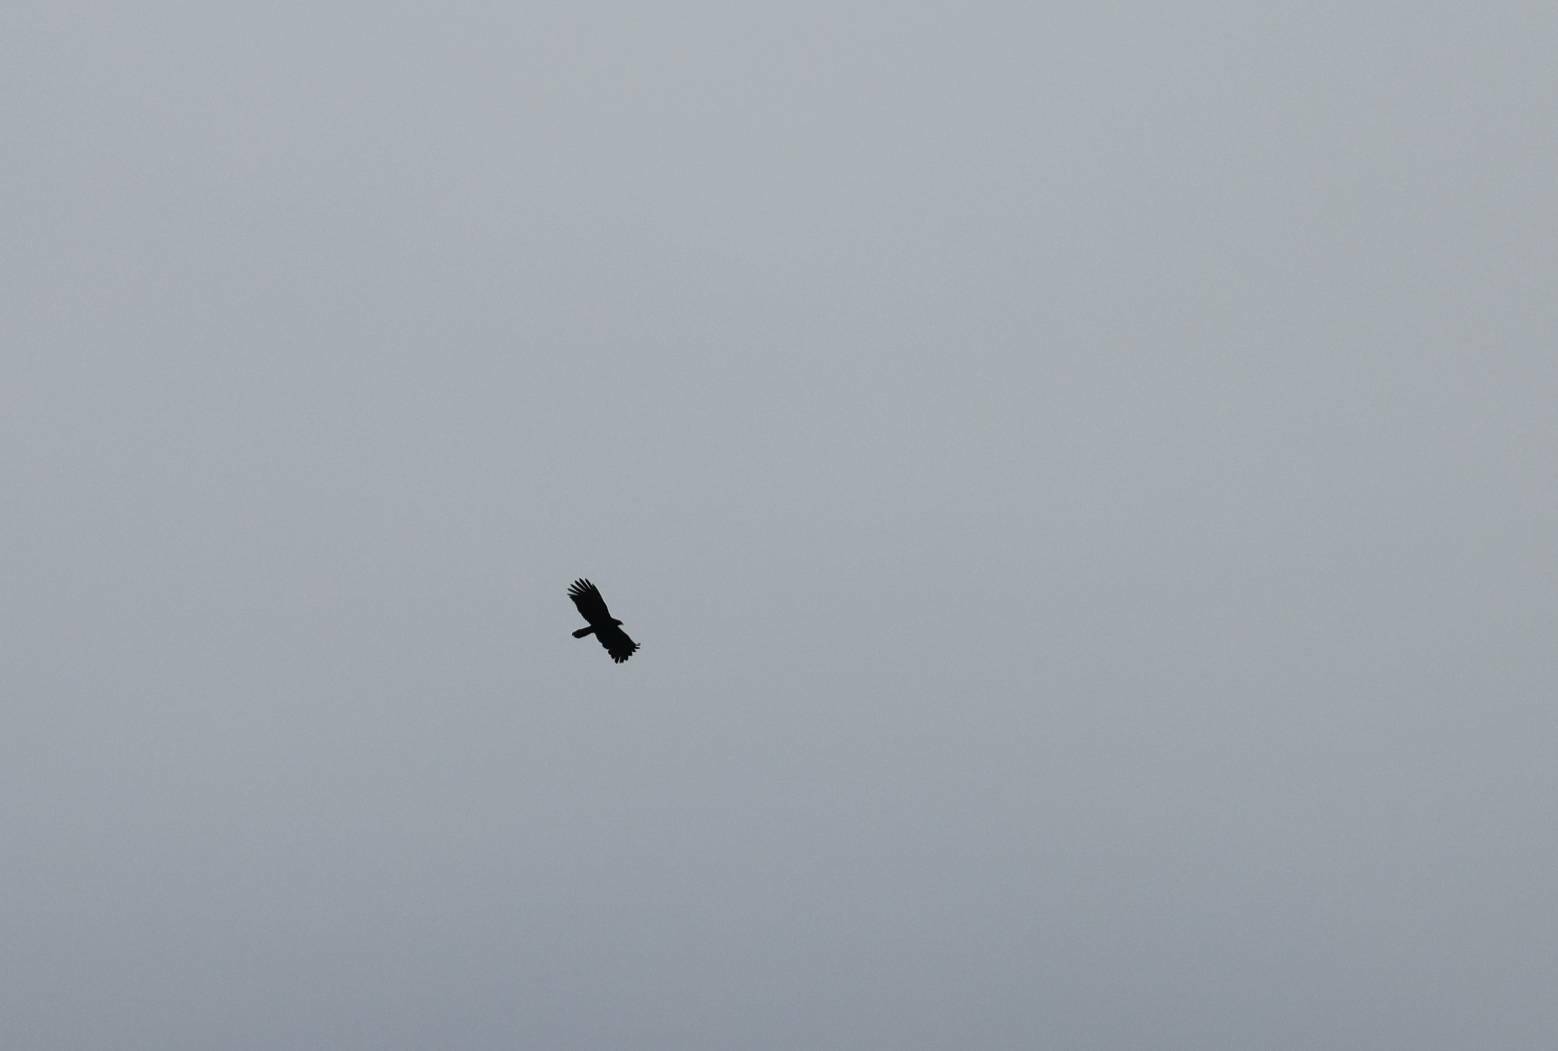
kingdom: Animalia
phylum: Chordata
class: Aves
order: Accipitriformes
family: Accipitridae
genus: Ictinaetus
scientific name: Ictinaetus malayensis
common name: Black eagle
